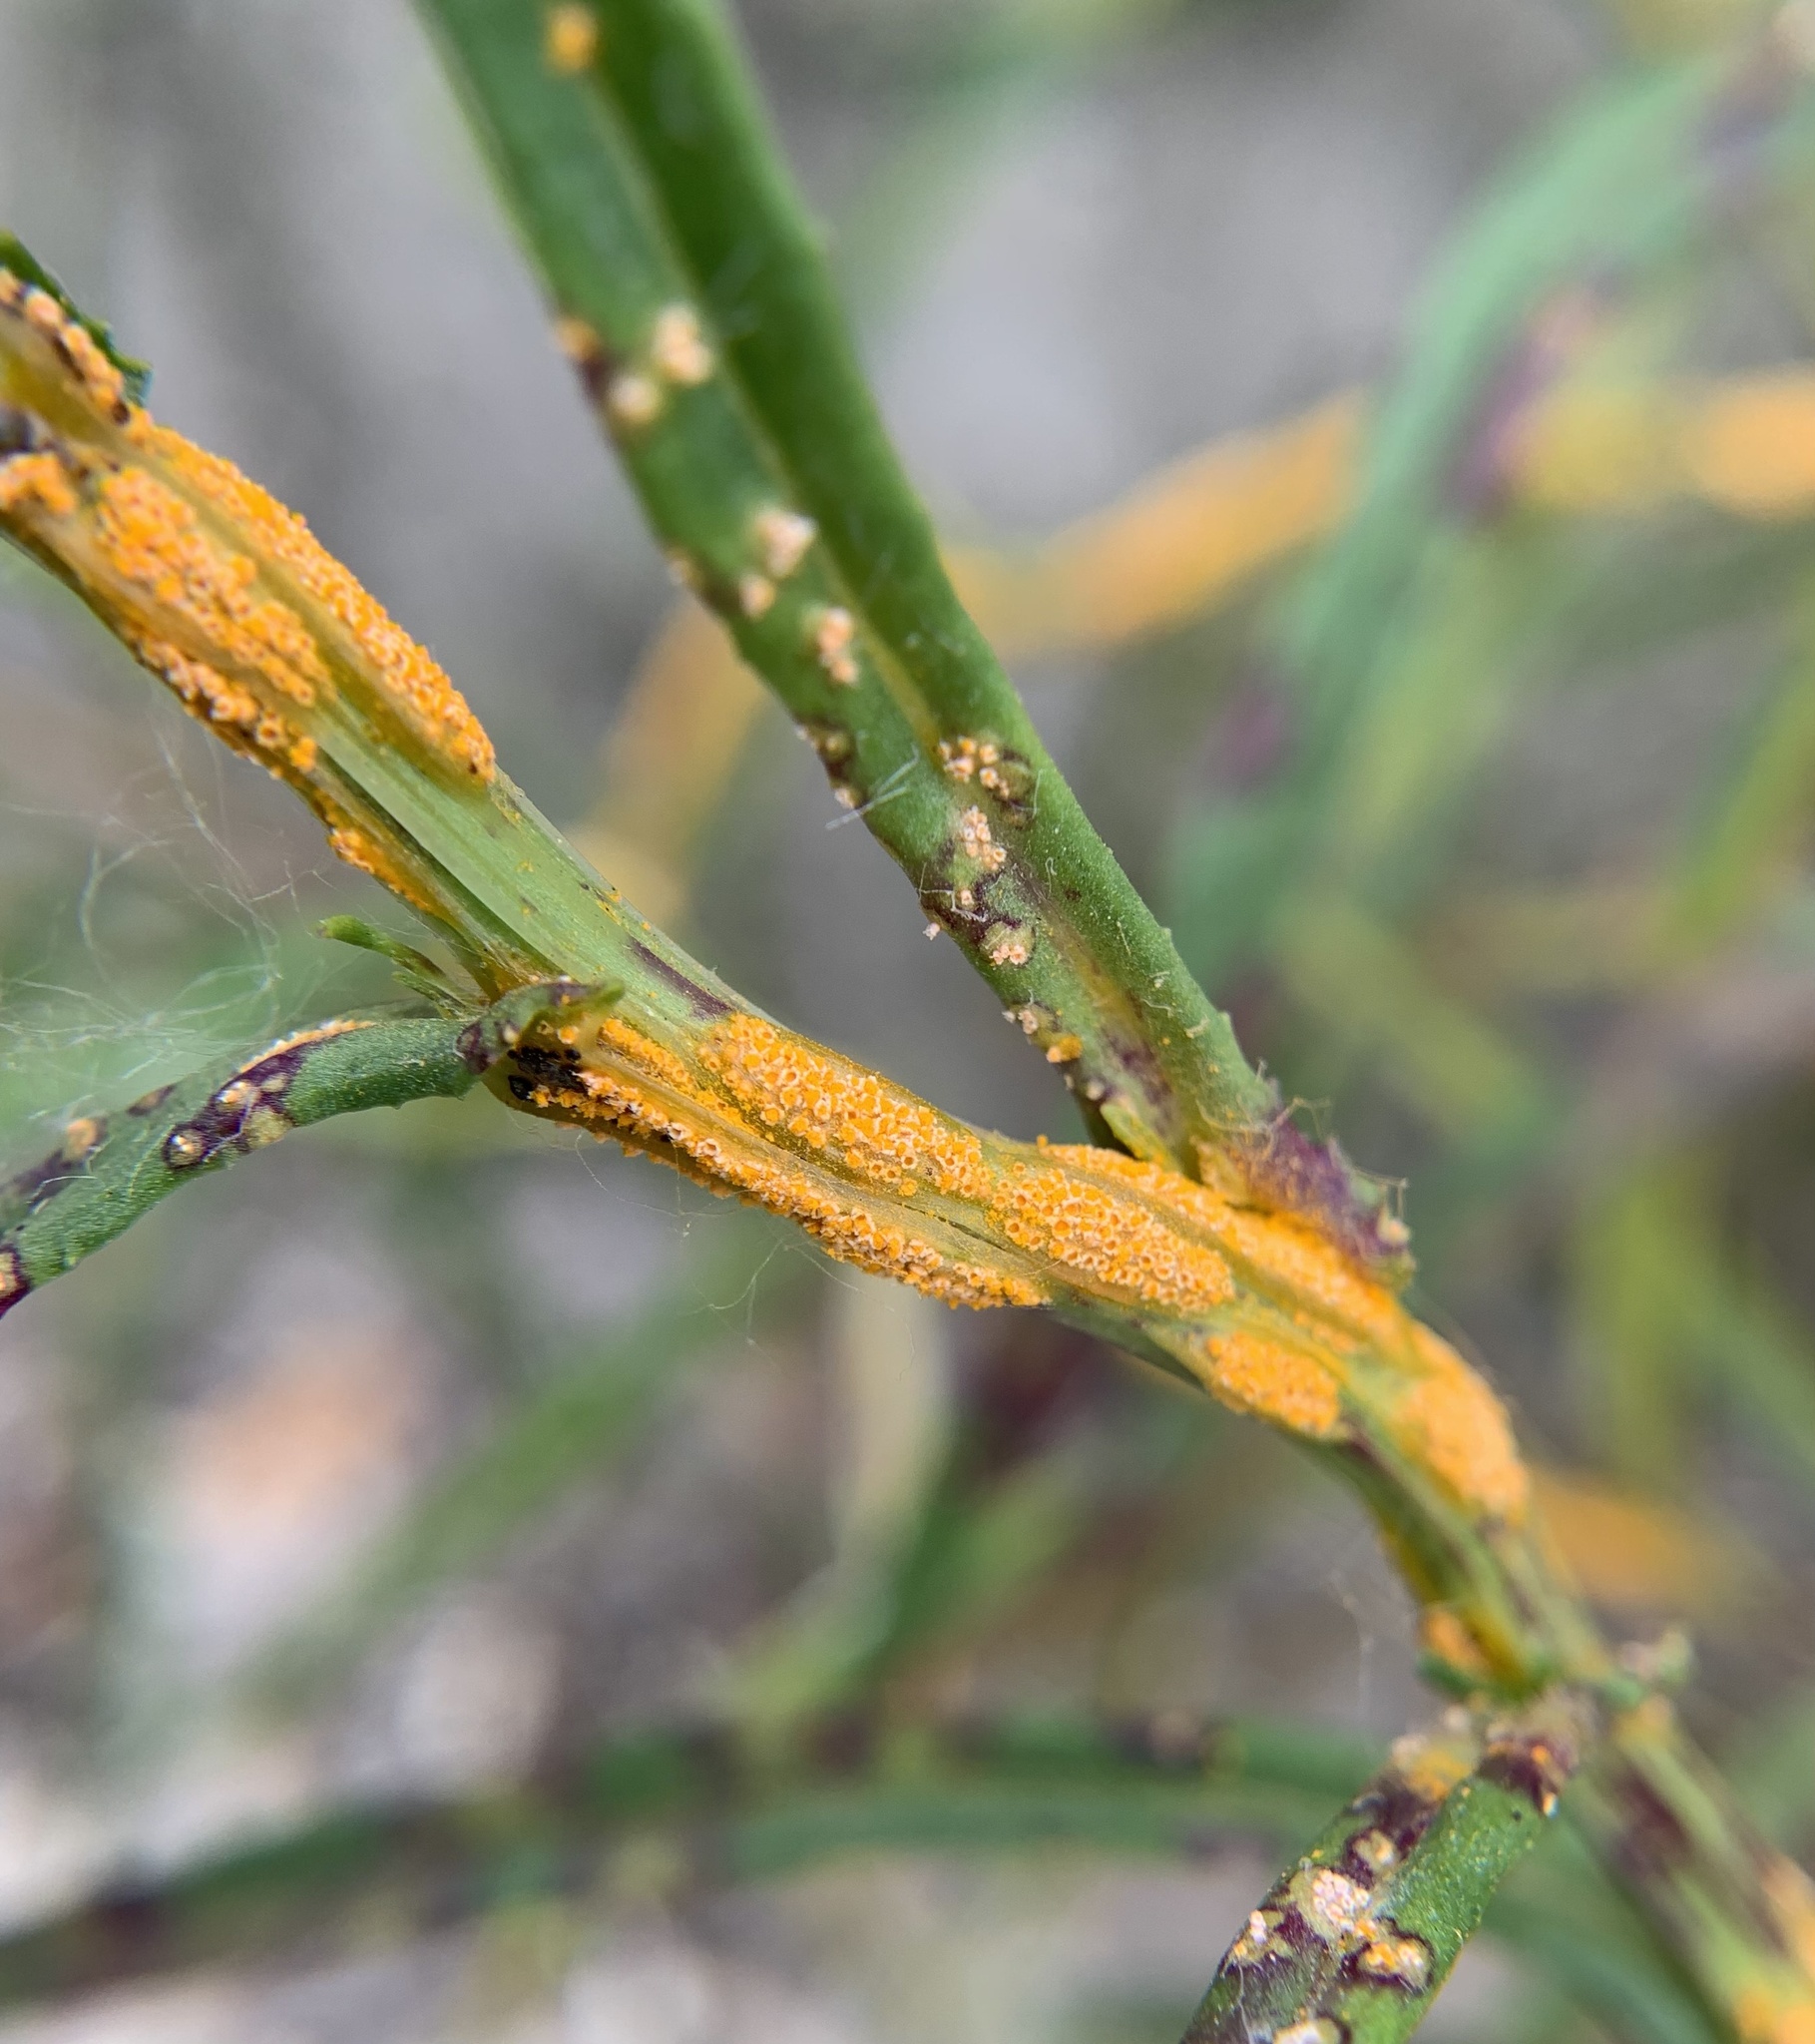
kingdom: Fungi
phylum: Basidiomycota
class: Pucciniomycetes
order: Pucciniales
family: Pucciniaceae
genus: Puccinia
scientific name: Puccinia lagenophorae
